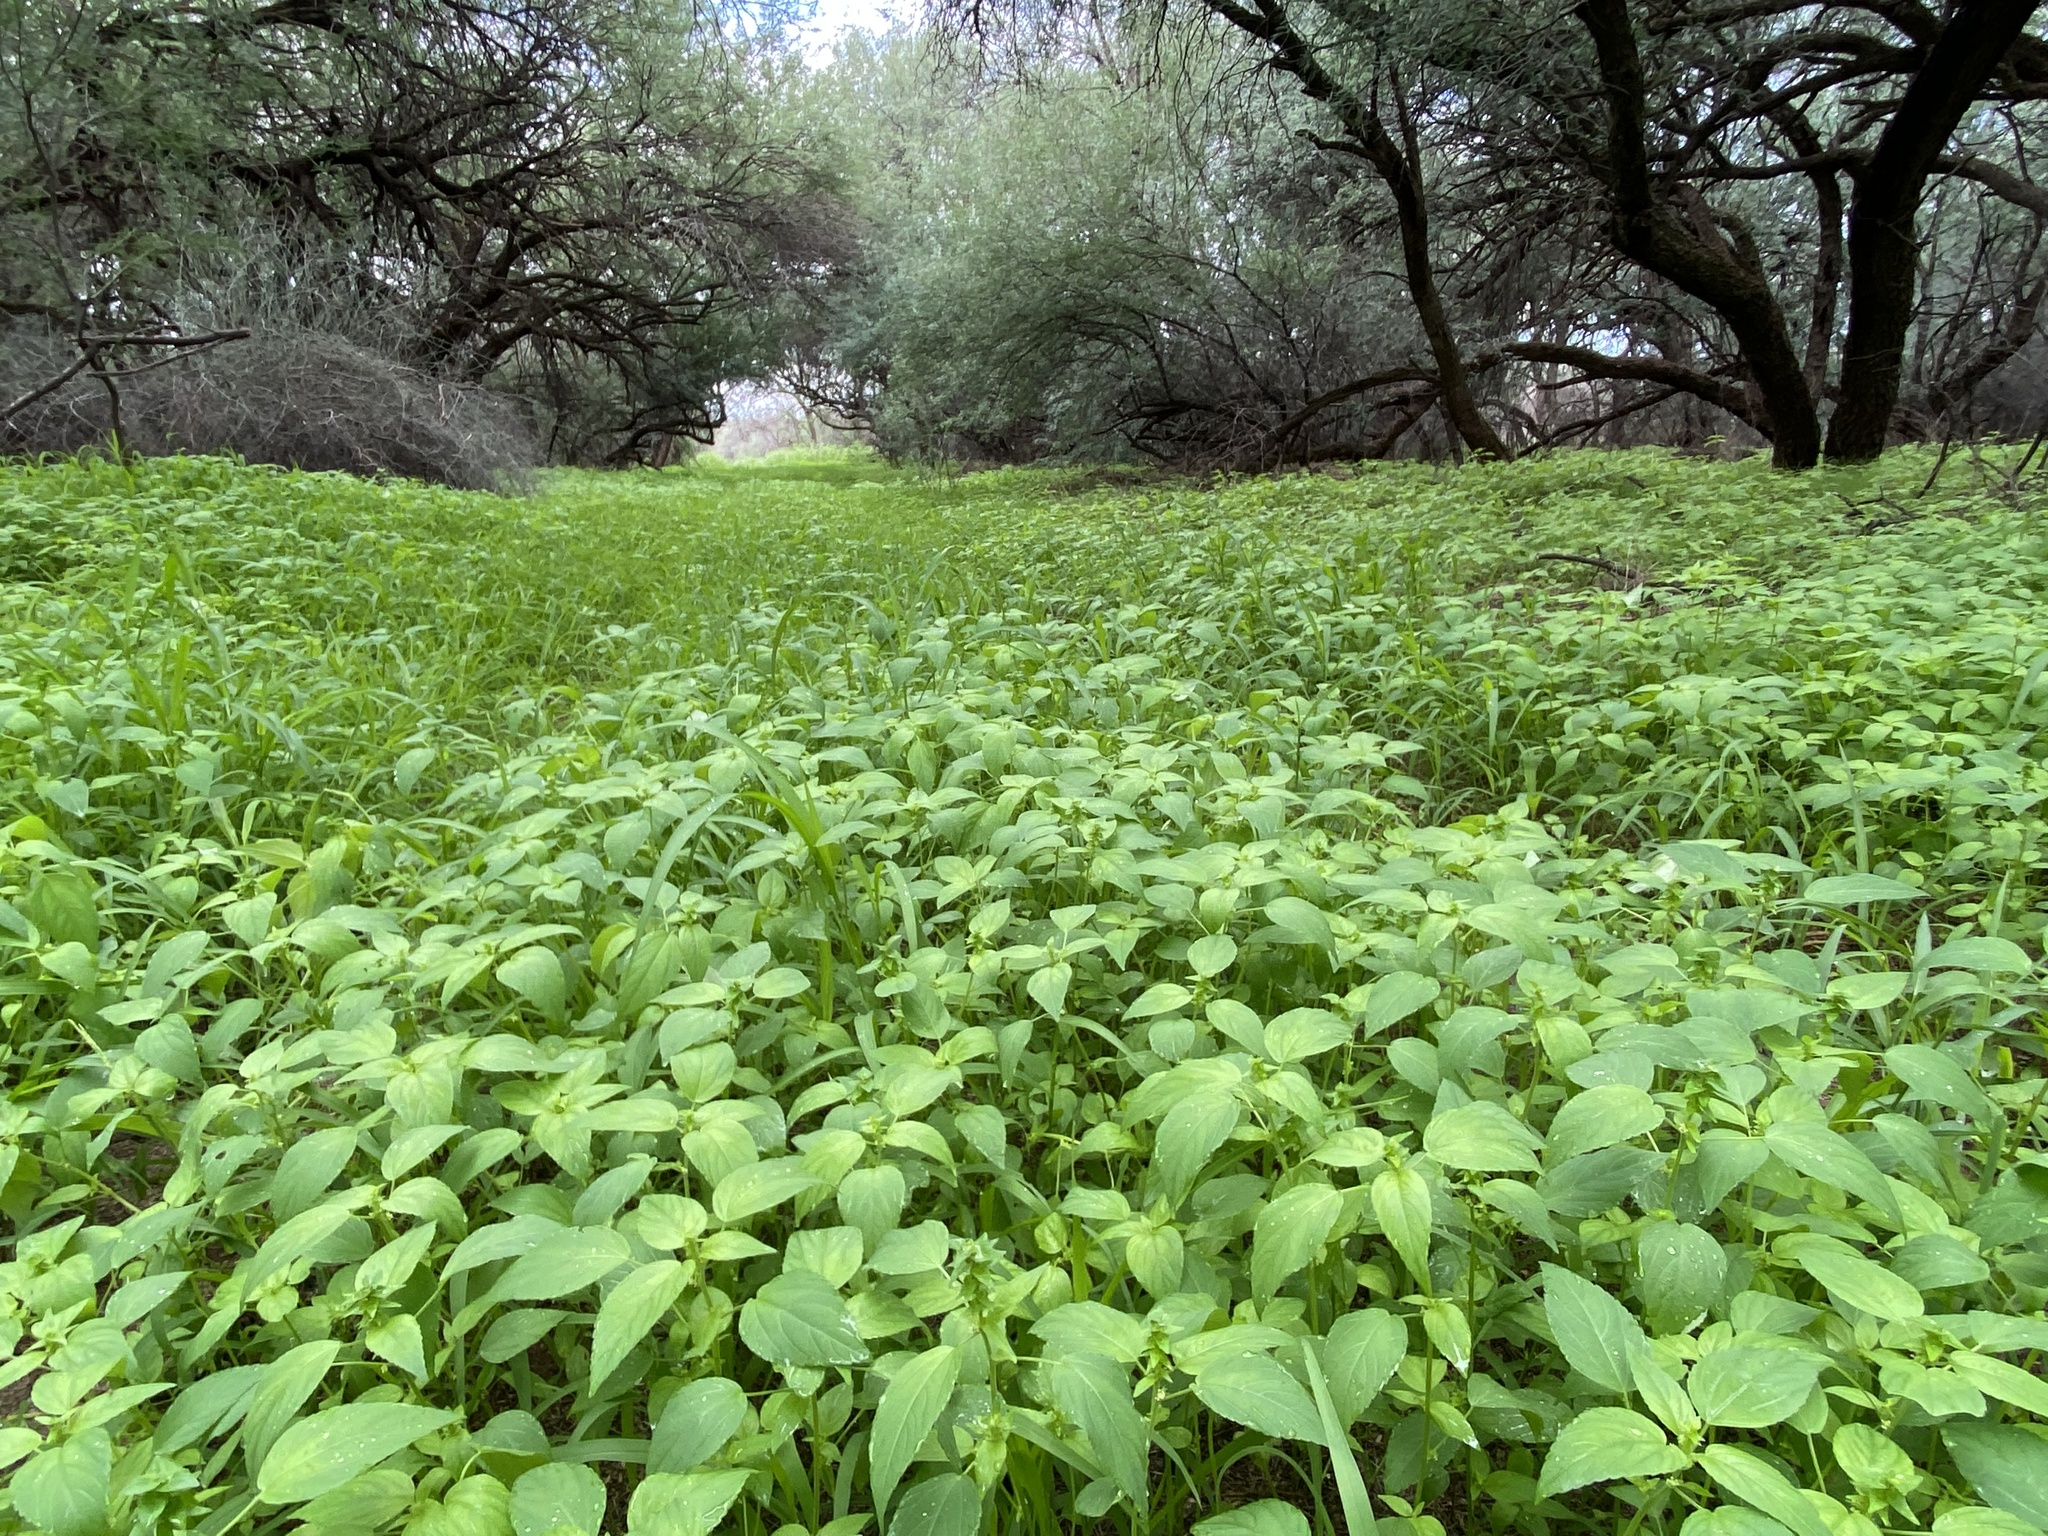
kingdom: Plantae
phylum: Tracheophyta
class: Magnoliopsida
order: Malpighiales
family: Euphorbiaceae
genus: Acalypha
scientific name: Acalypha neomexicana
